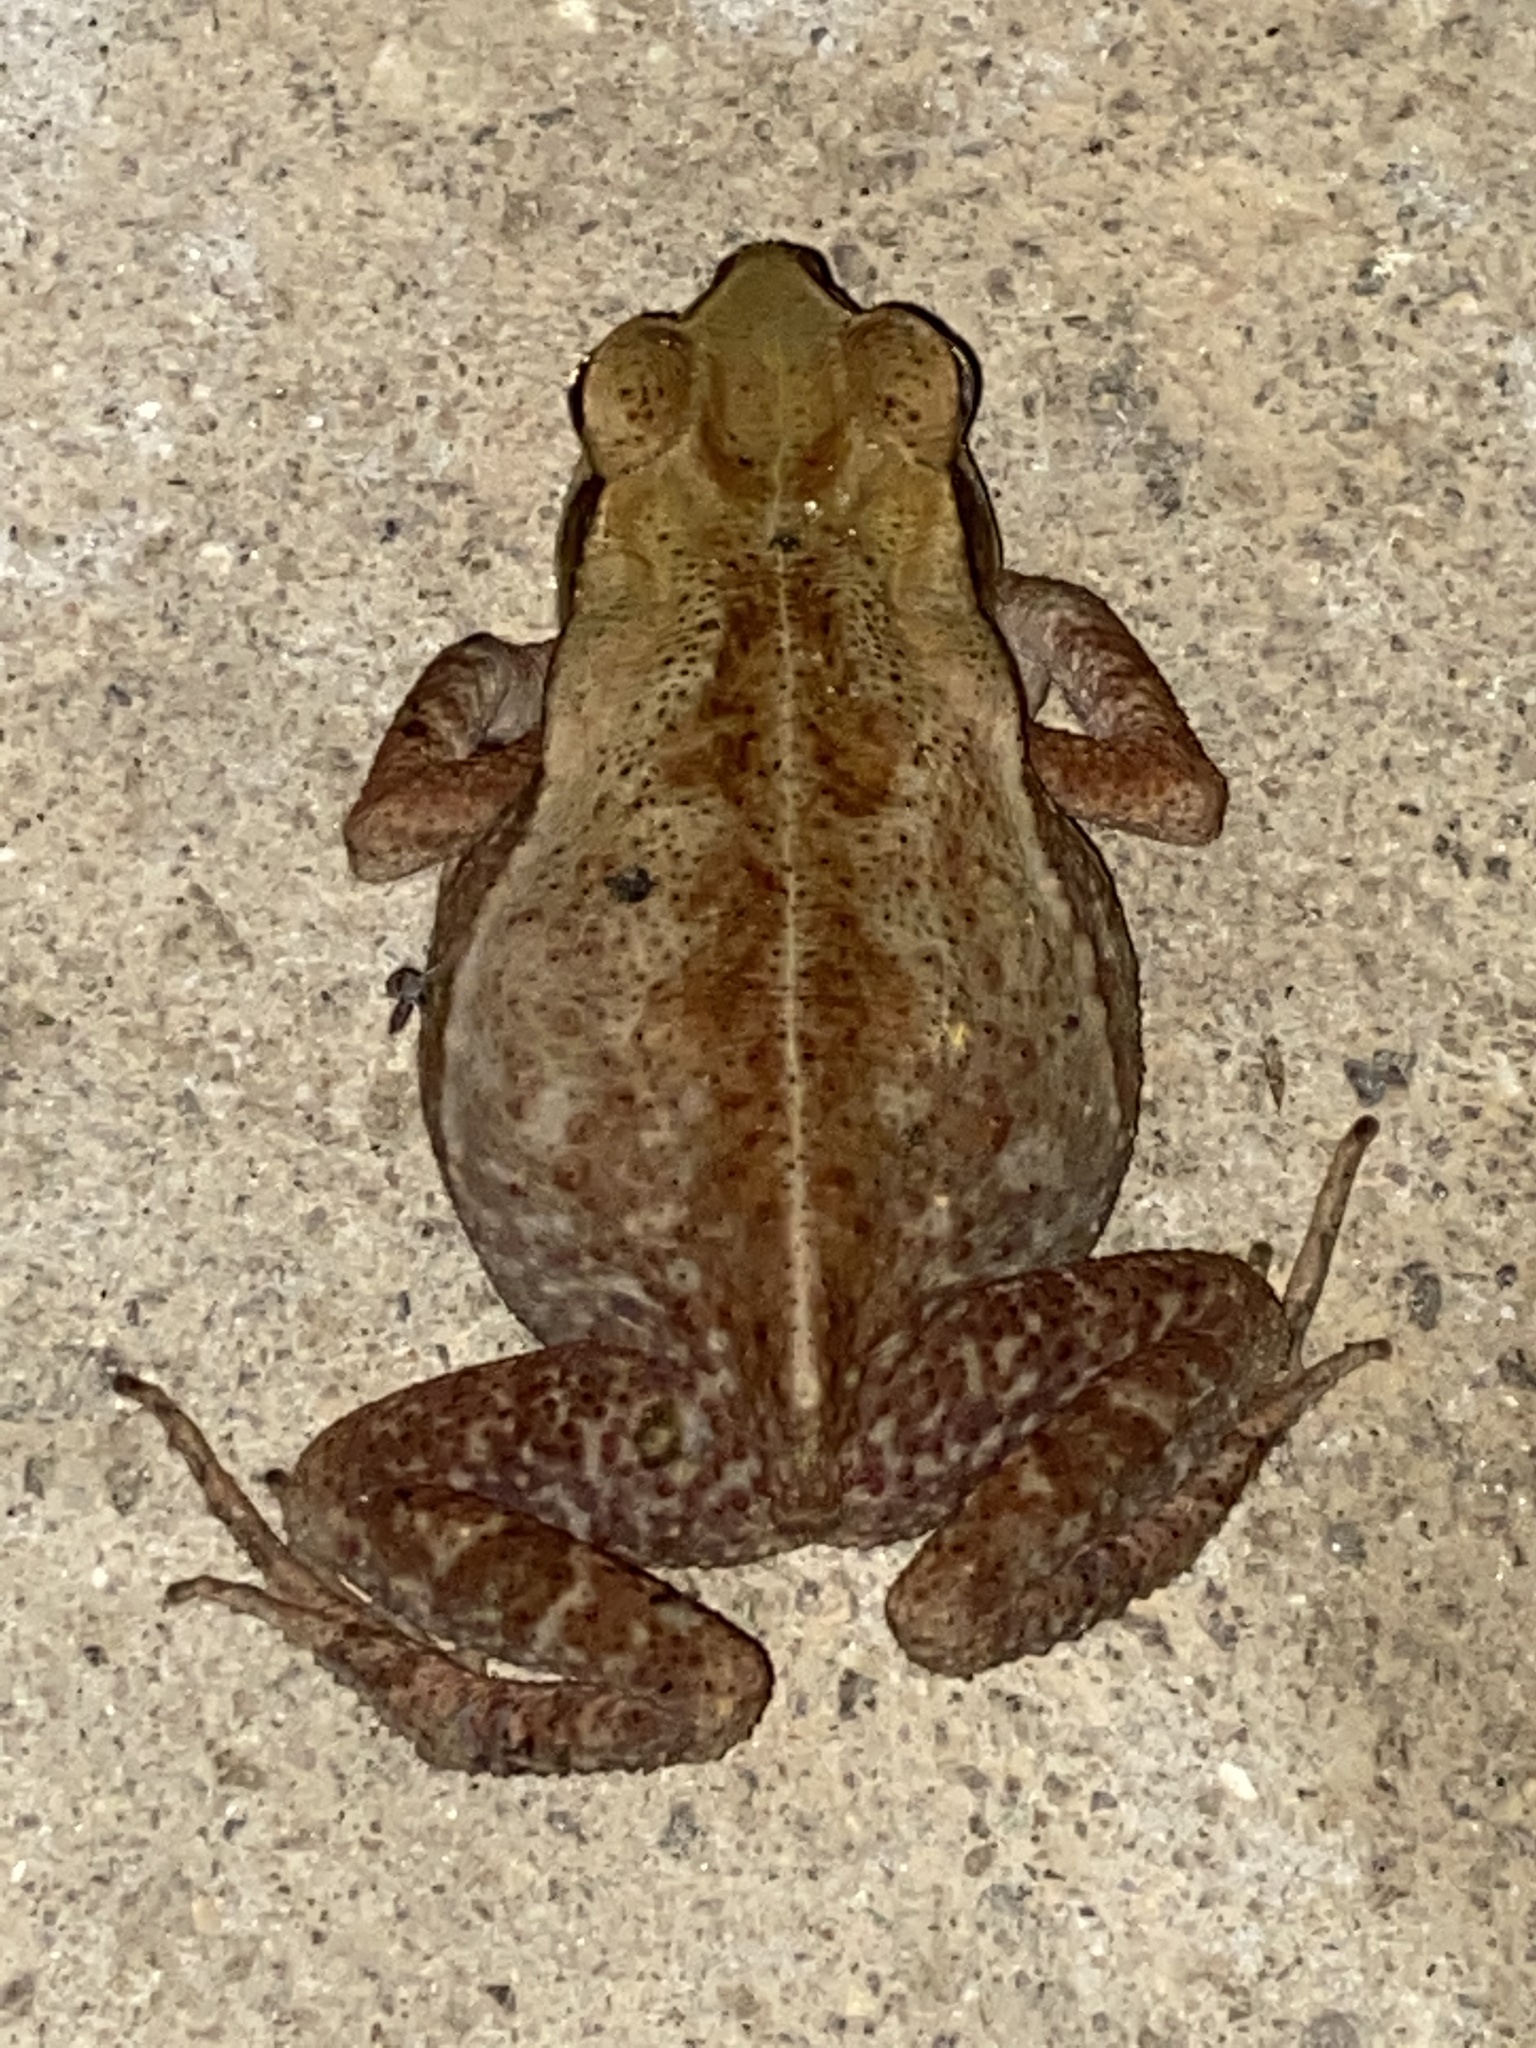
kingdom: Animalia
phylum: Chordata
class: Amphibia
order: Anura
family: Bufonidae
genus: Rhinella
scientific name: Rhinella ornata
